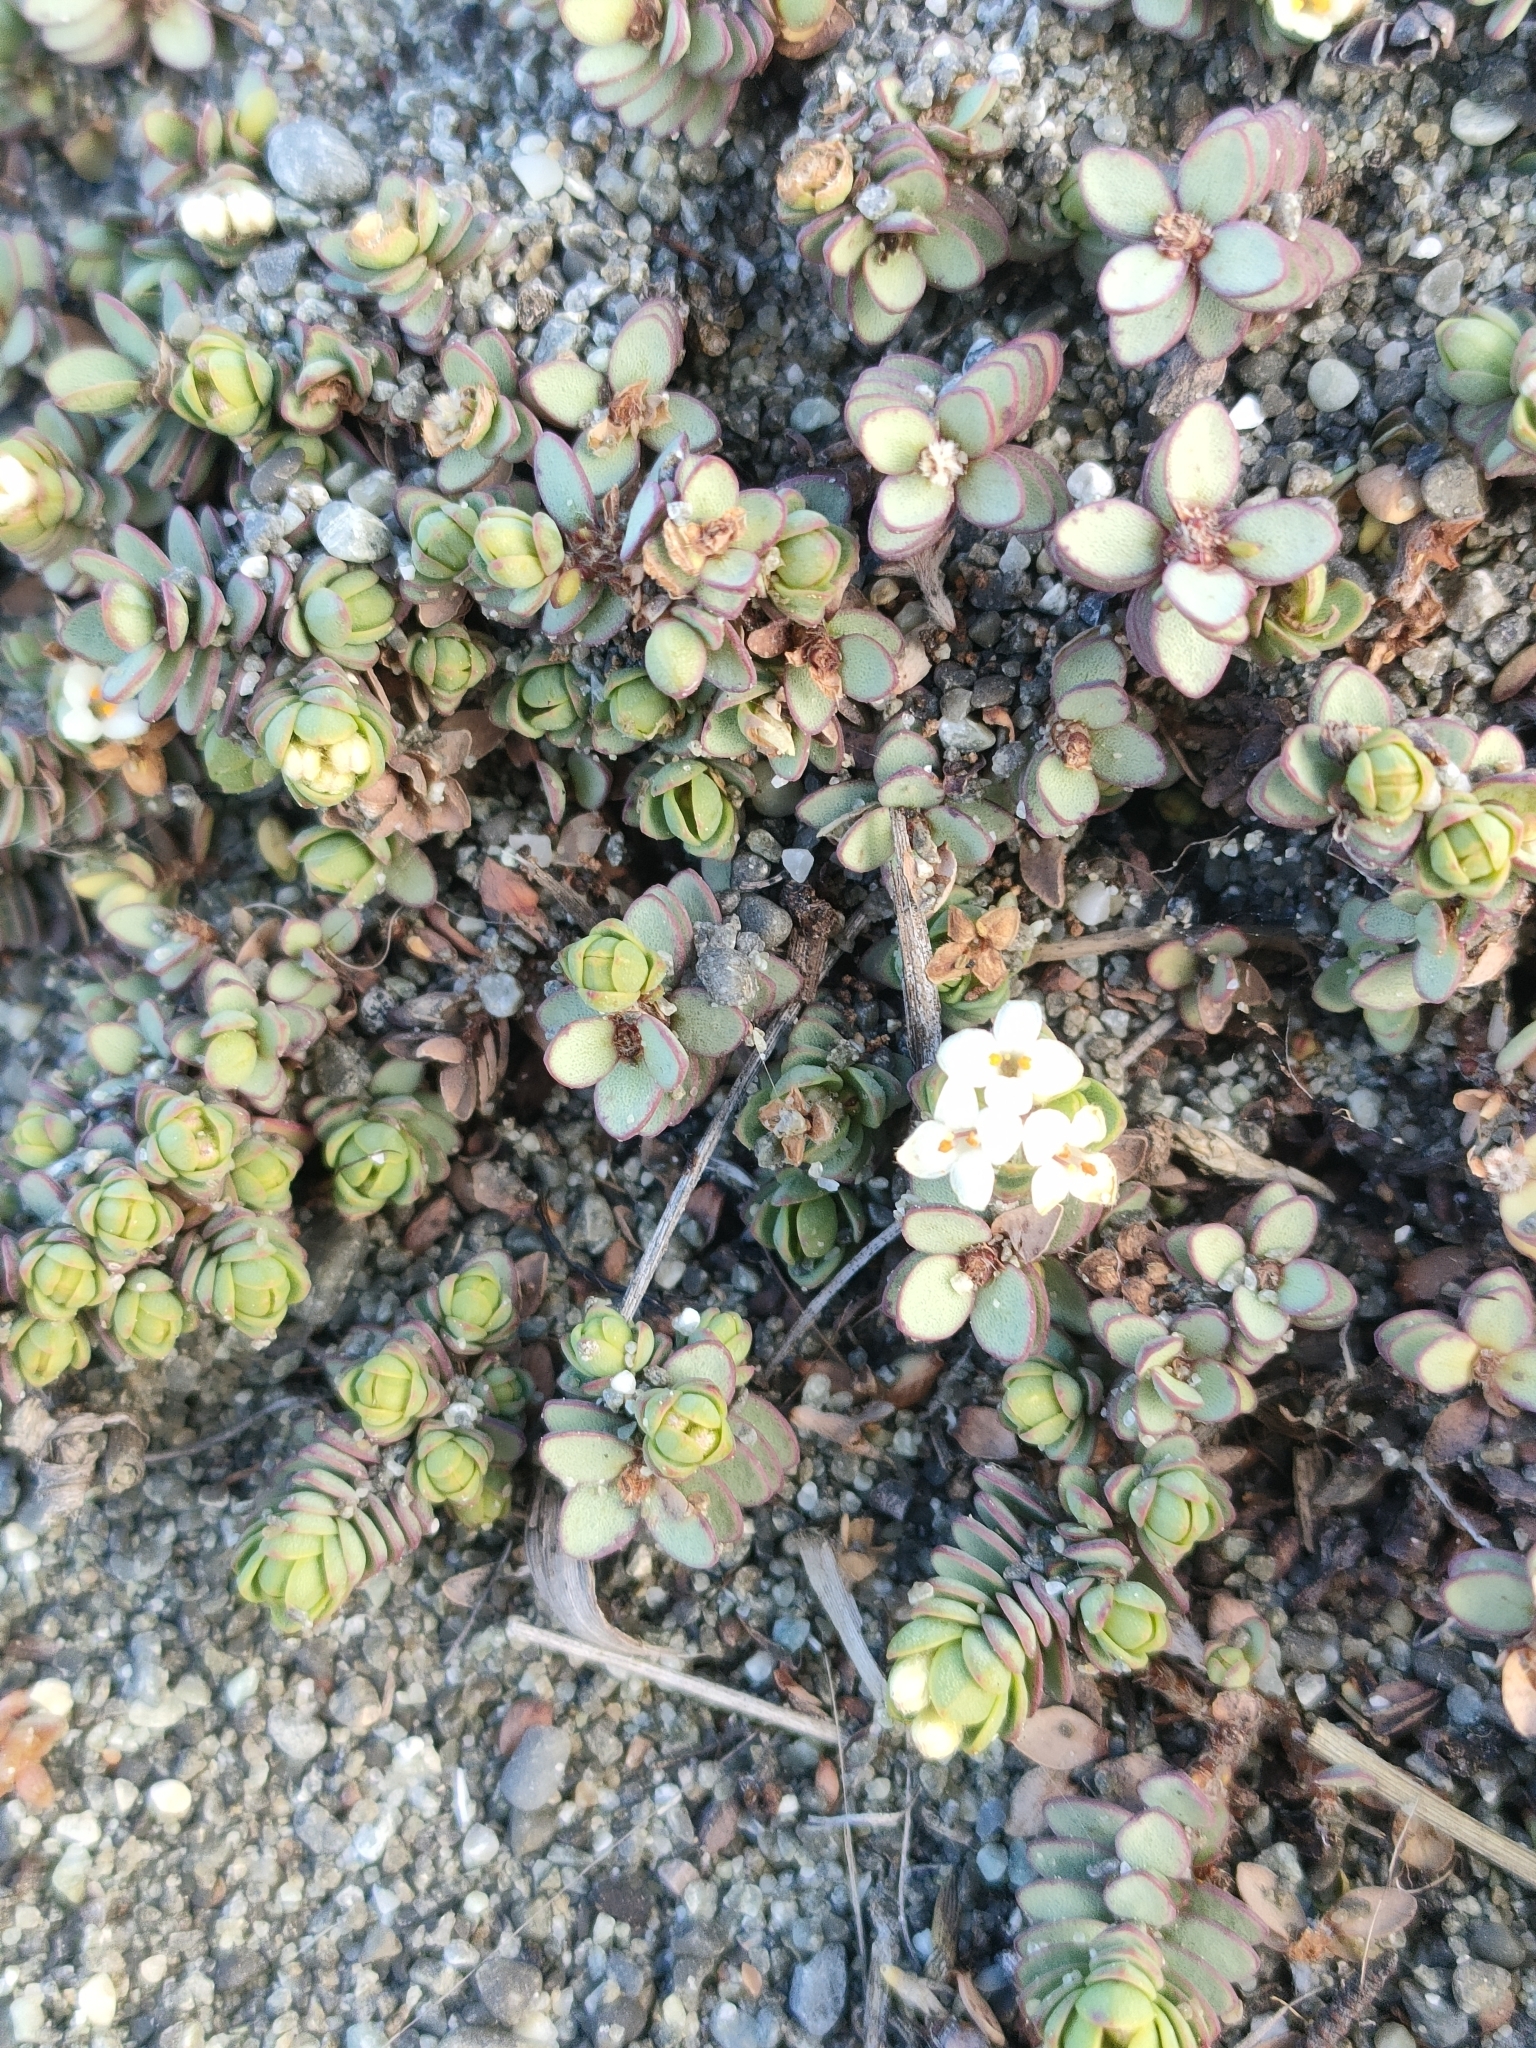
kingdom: Plantae
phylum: Tracheophyta
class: Magnoliopsida
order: Malvales
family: Thymelaeaceae
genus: Pimelea
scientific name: Pimelea prostrata
